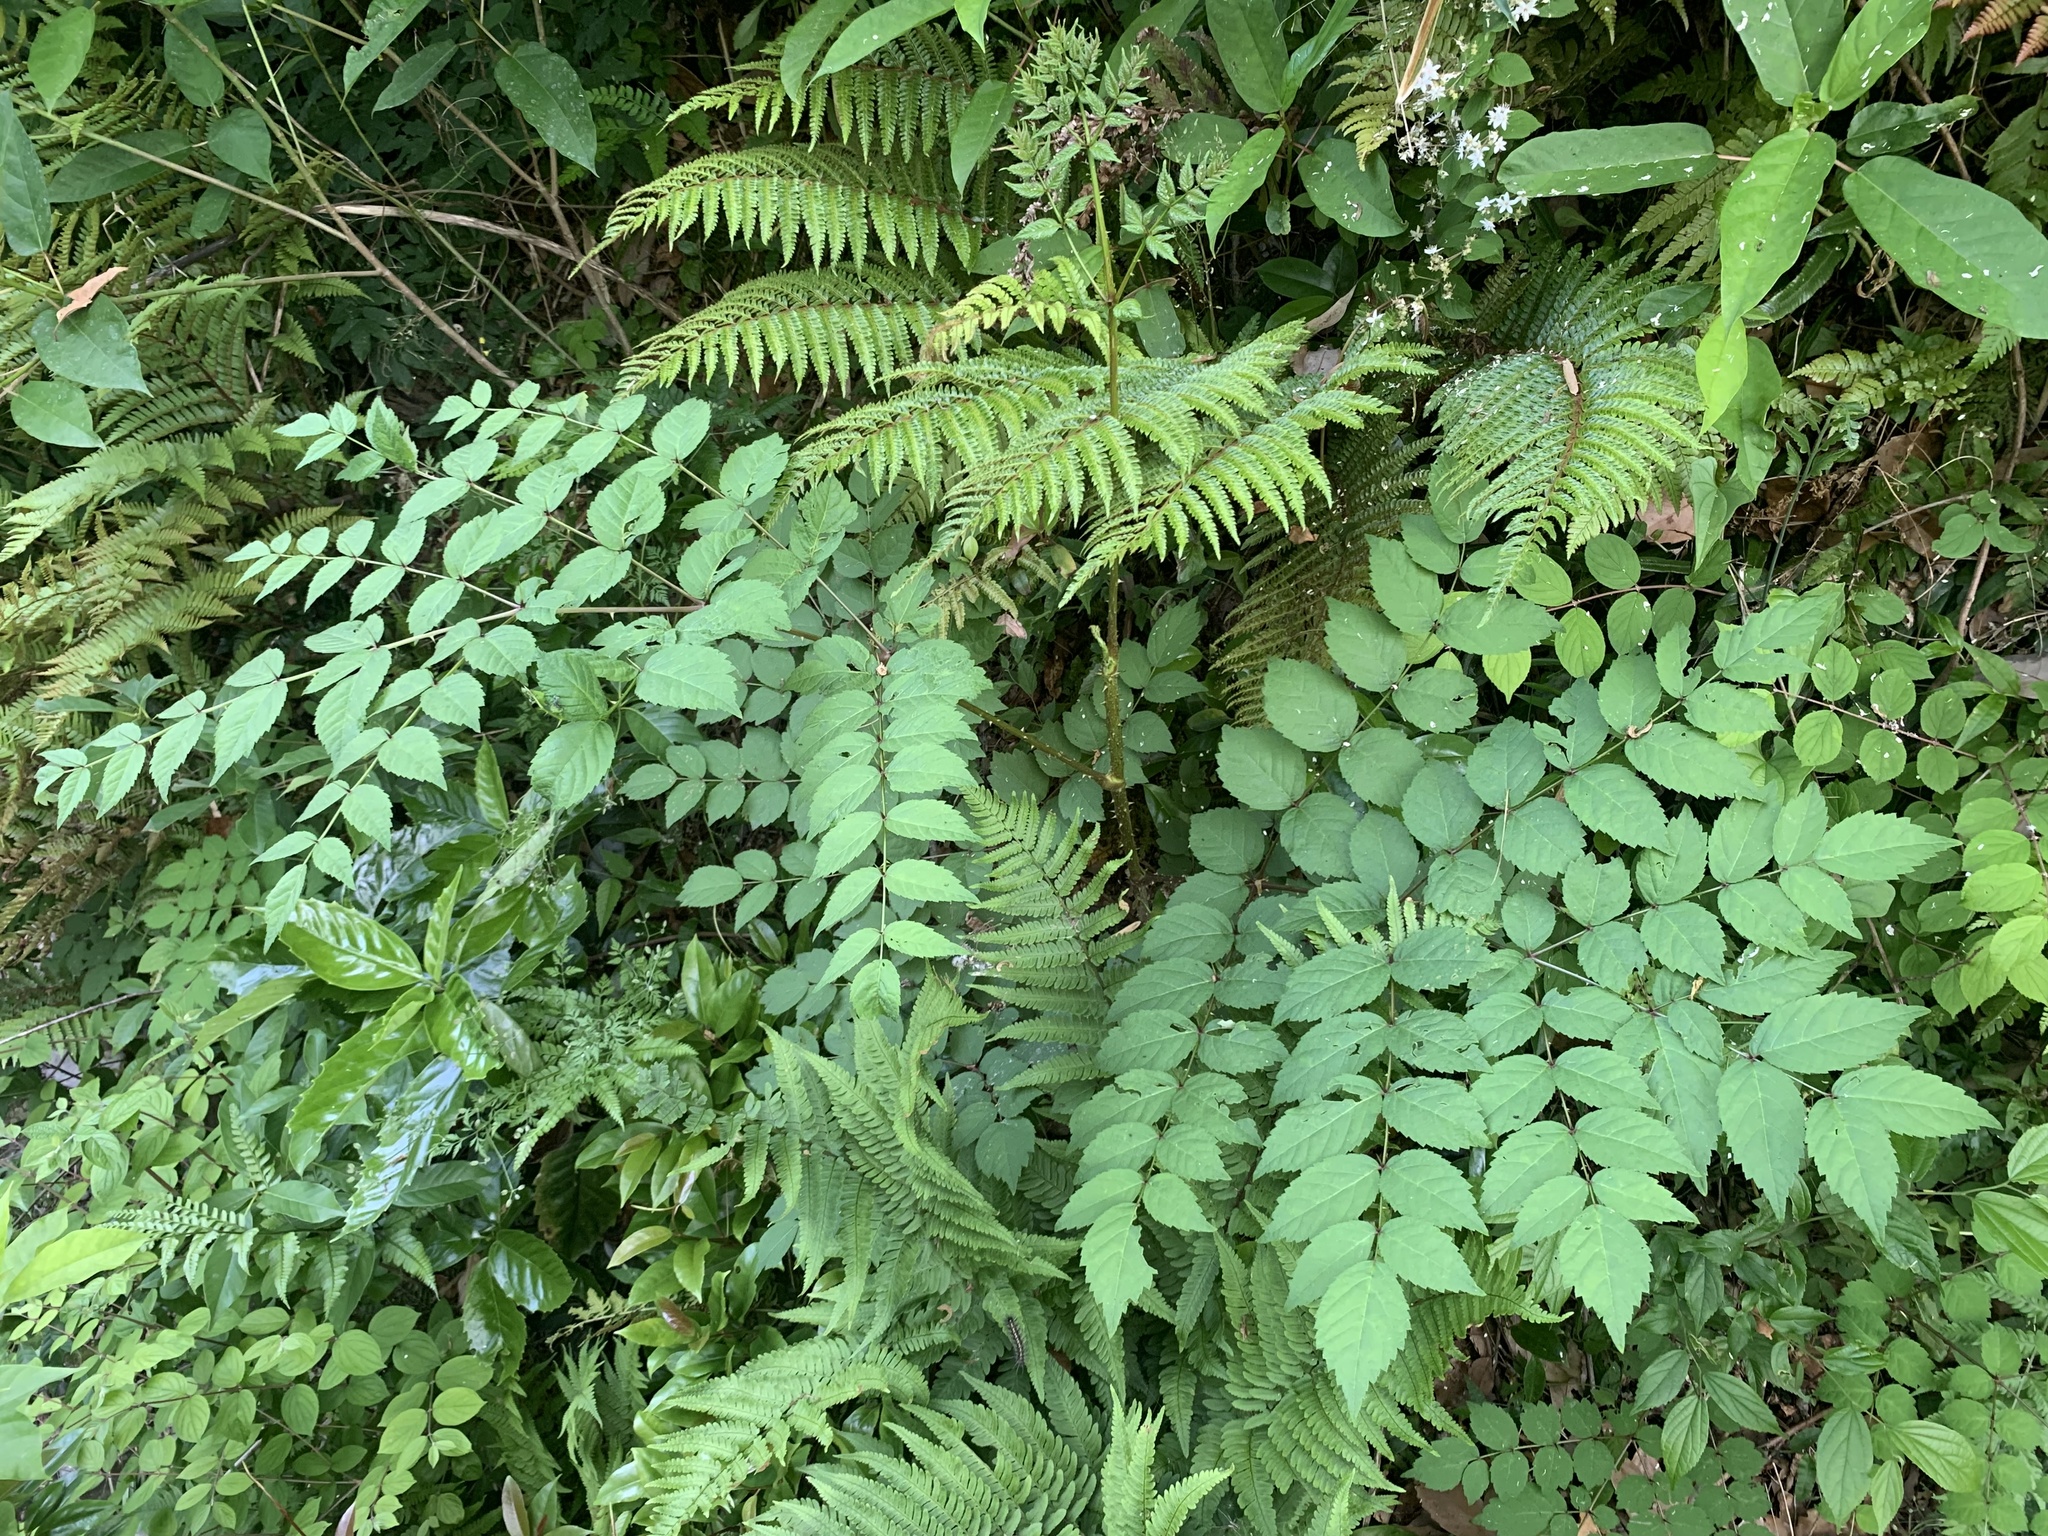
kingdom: Plantae
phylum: Tracheophyta
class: Magnoliopsida
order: Apiales
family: Araliaceae
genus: Aralia
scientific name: Aralia elata
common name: Japanese angelica-tree
